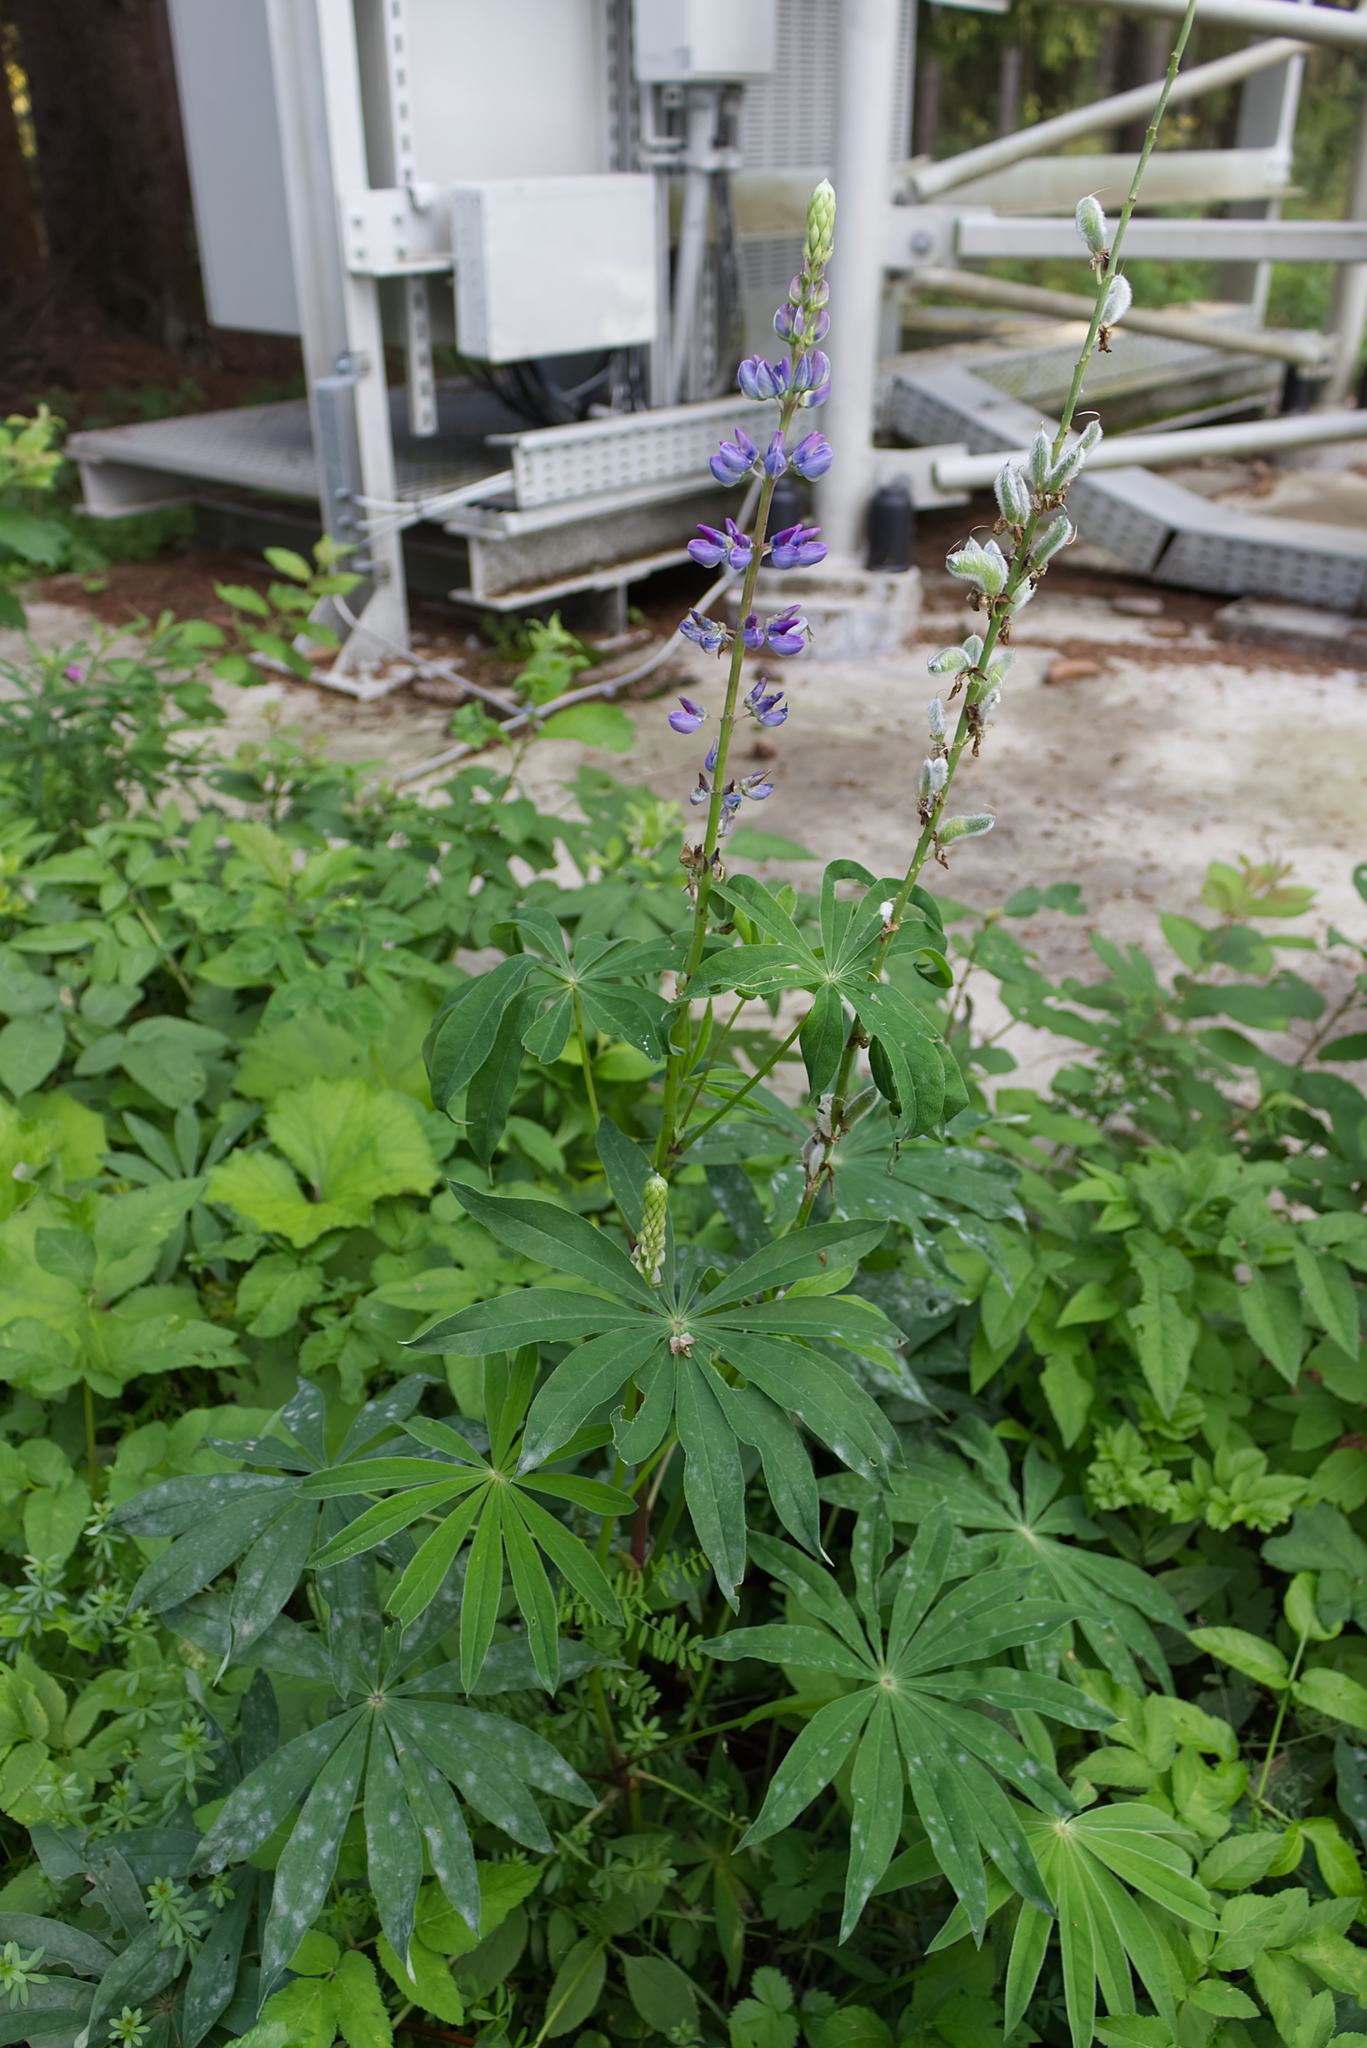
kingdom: Plantae
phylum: Tracheophyta
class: Magnoliopsida
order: Fabales
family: Fabaceae
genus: Lupinus
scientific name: Lupinus polyphyllus
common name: Garden lupin
